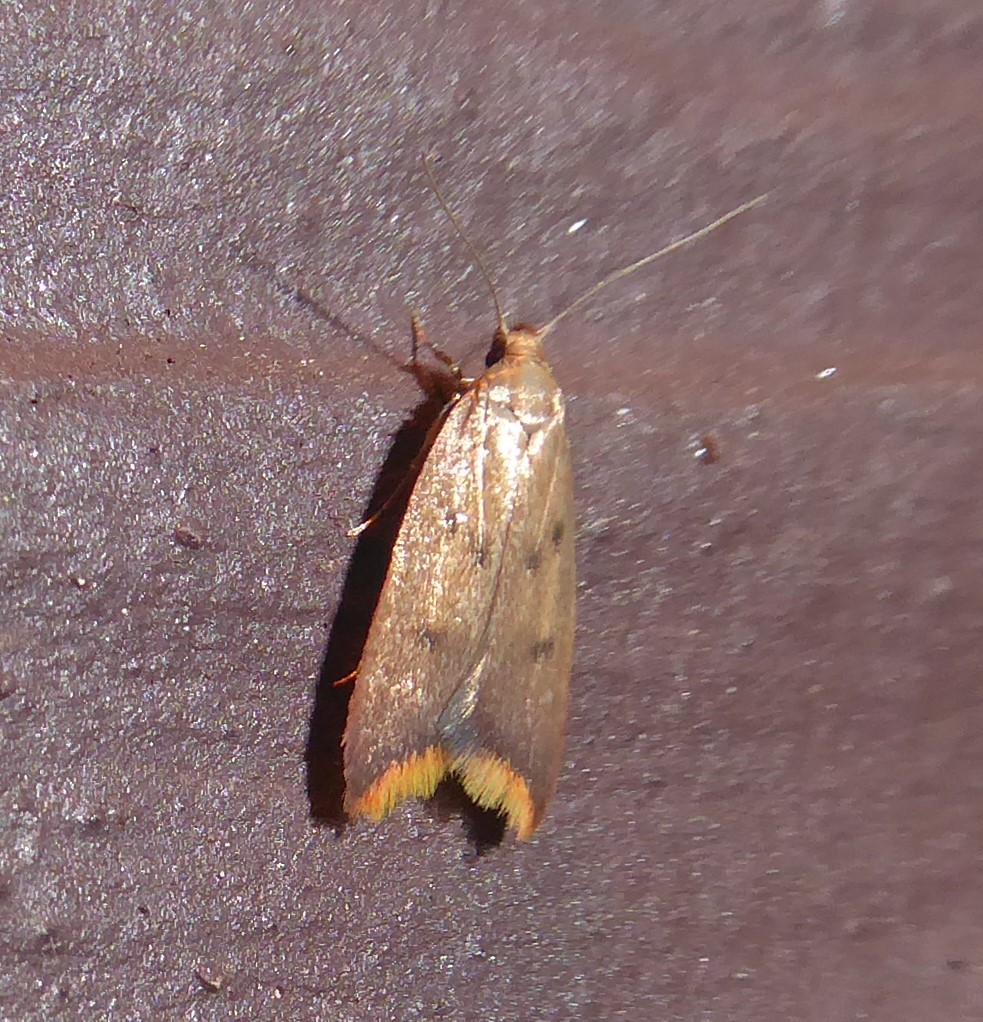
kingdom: Animalia
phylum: Arthropoda
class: Insecta
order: Lepidoptera
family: Oecophoridae
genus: Tachystola
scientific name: Tachystola acroxantha
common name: Ruddy streak
